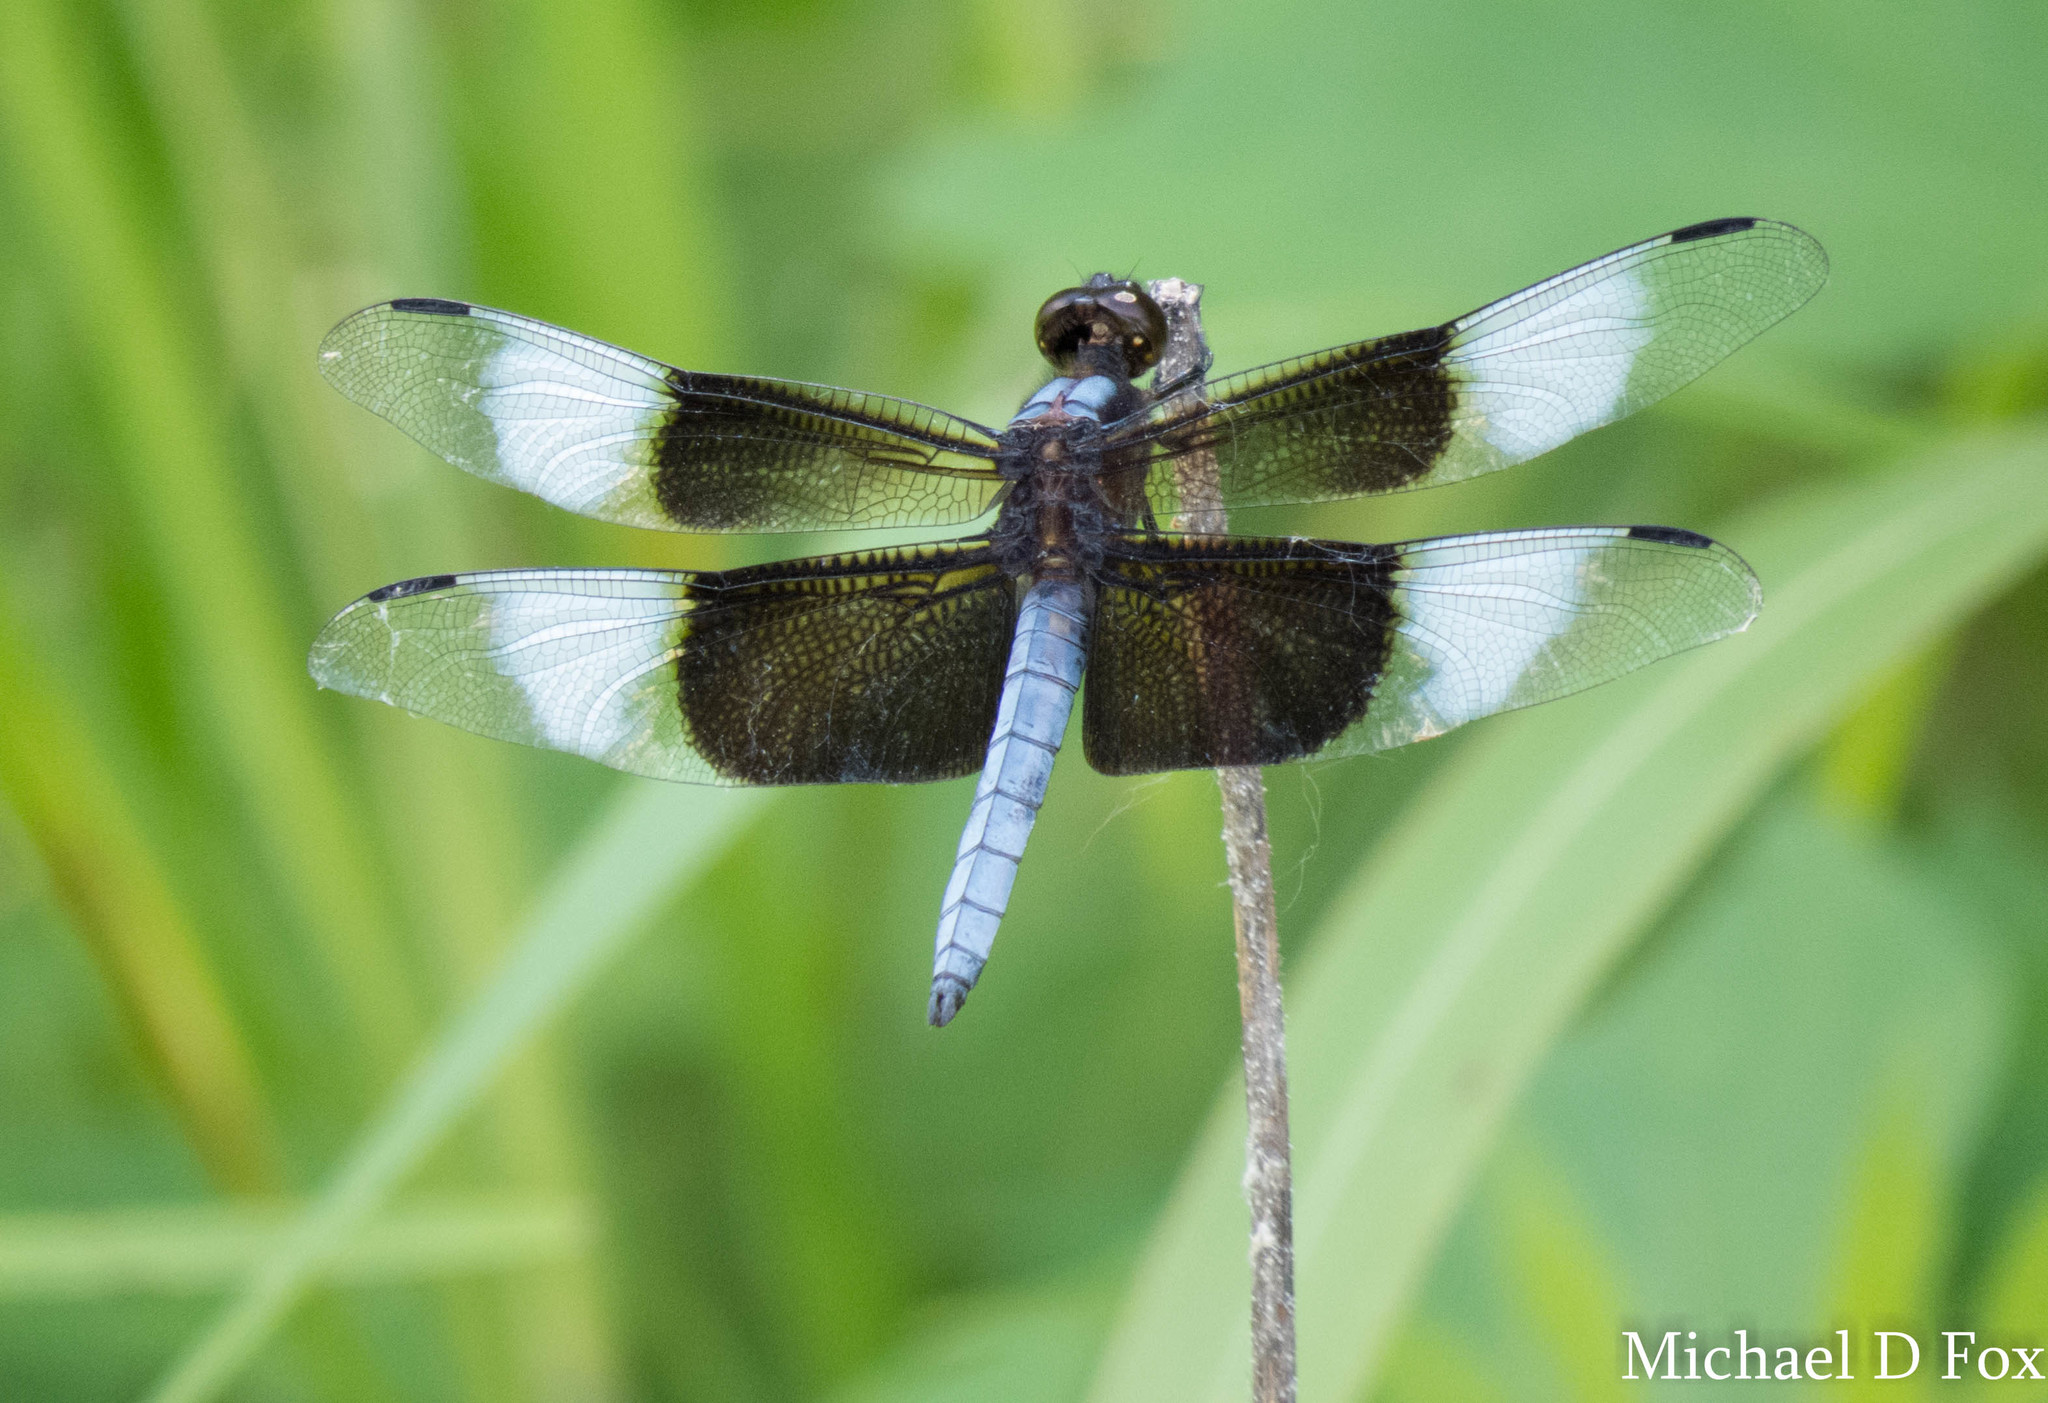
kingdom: Animalia
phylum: Arthropoda
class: Insecta
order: Odonata
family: Libellulidae
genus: Libellula
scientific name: Libellula luctuosa
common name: Widow skimmer
